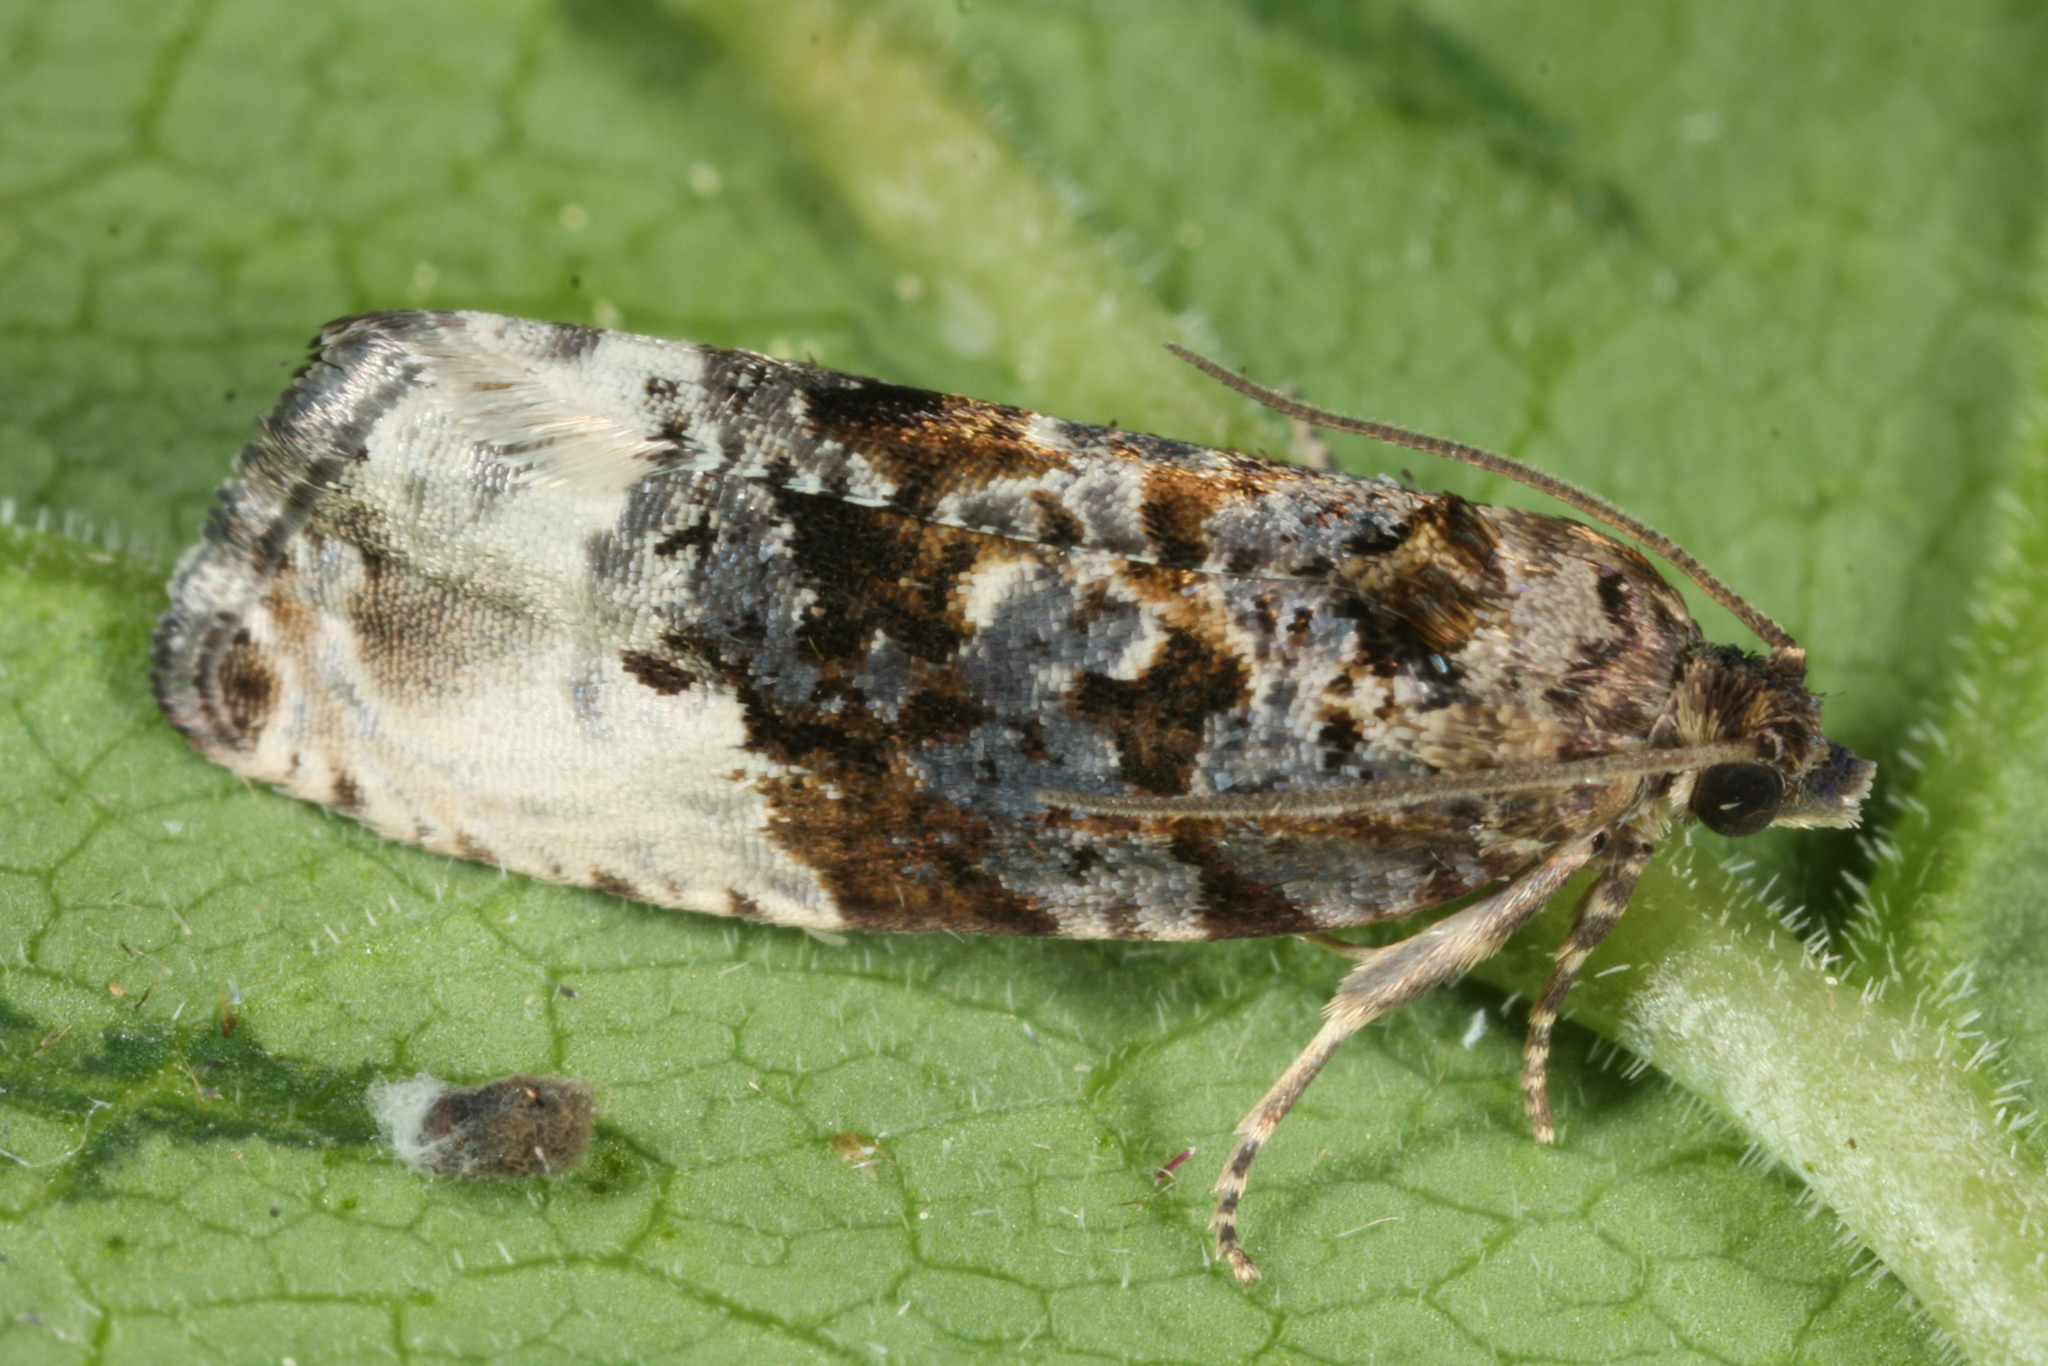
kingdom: Animalia
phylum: Arthropoda
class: Insecta
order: Lepidoptera
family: Tortricidae
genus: Hedya
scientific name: Hedya nubiferana
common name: Marbled orchard tortrix
